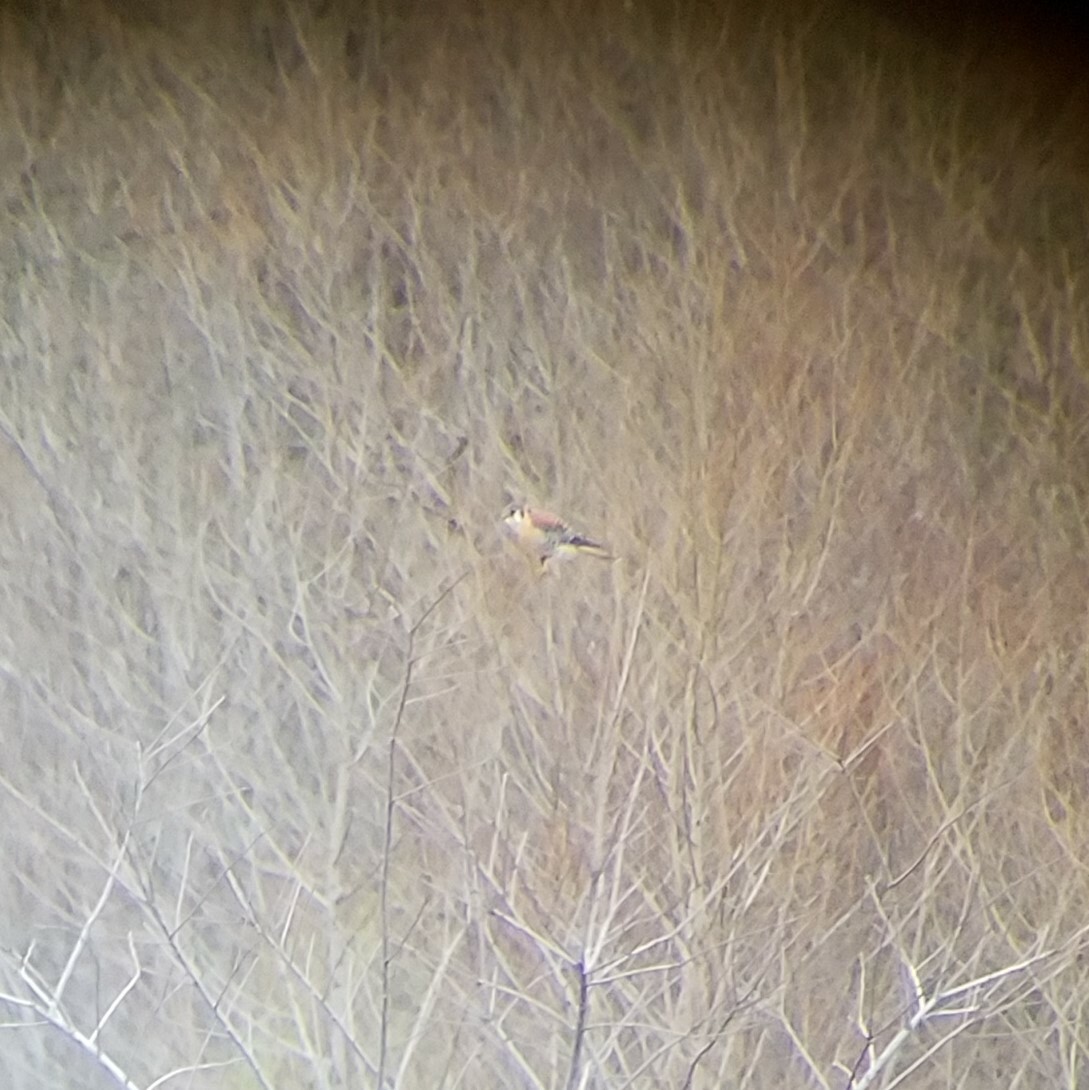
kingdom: Animalia
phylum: Chordata
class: Aves
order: Falconiformes
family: Falconidae
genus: Falco
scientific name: Falco sparverius
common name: American kestrel
